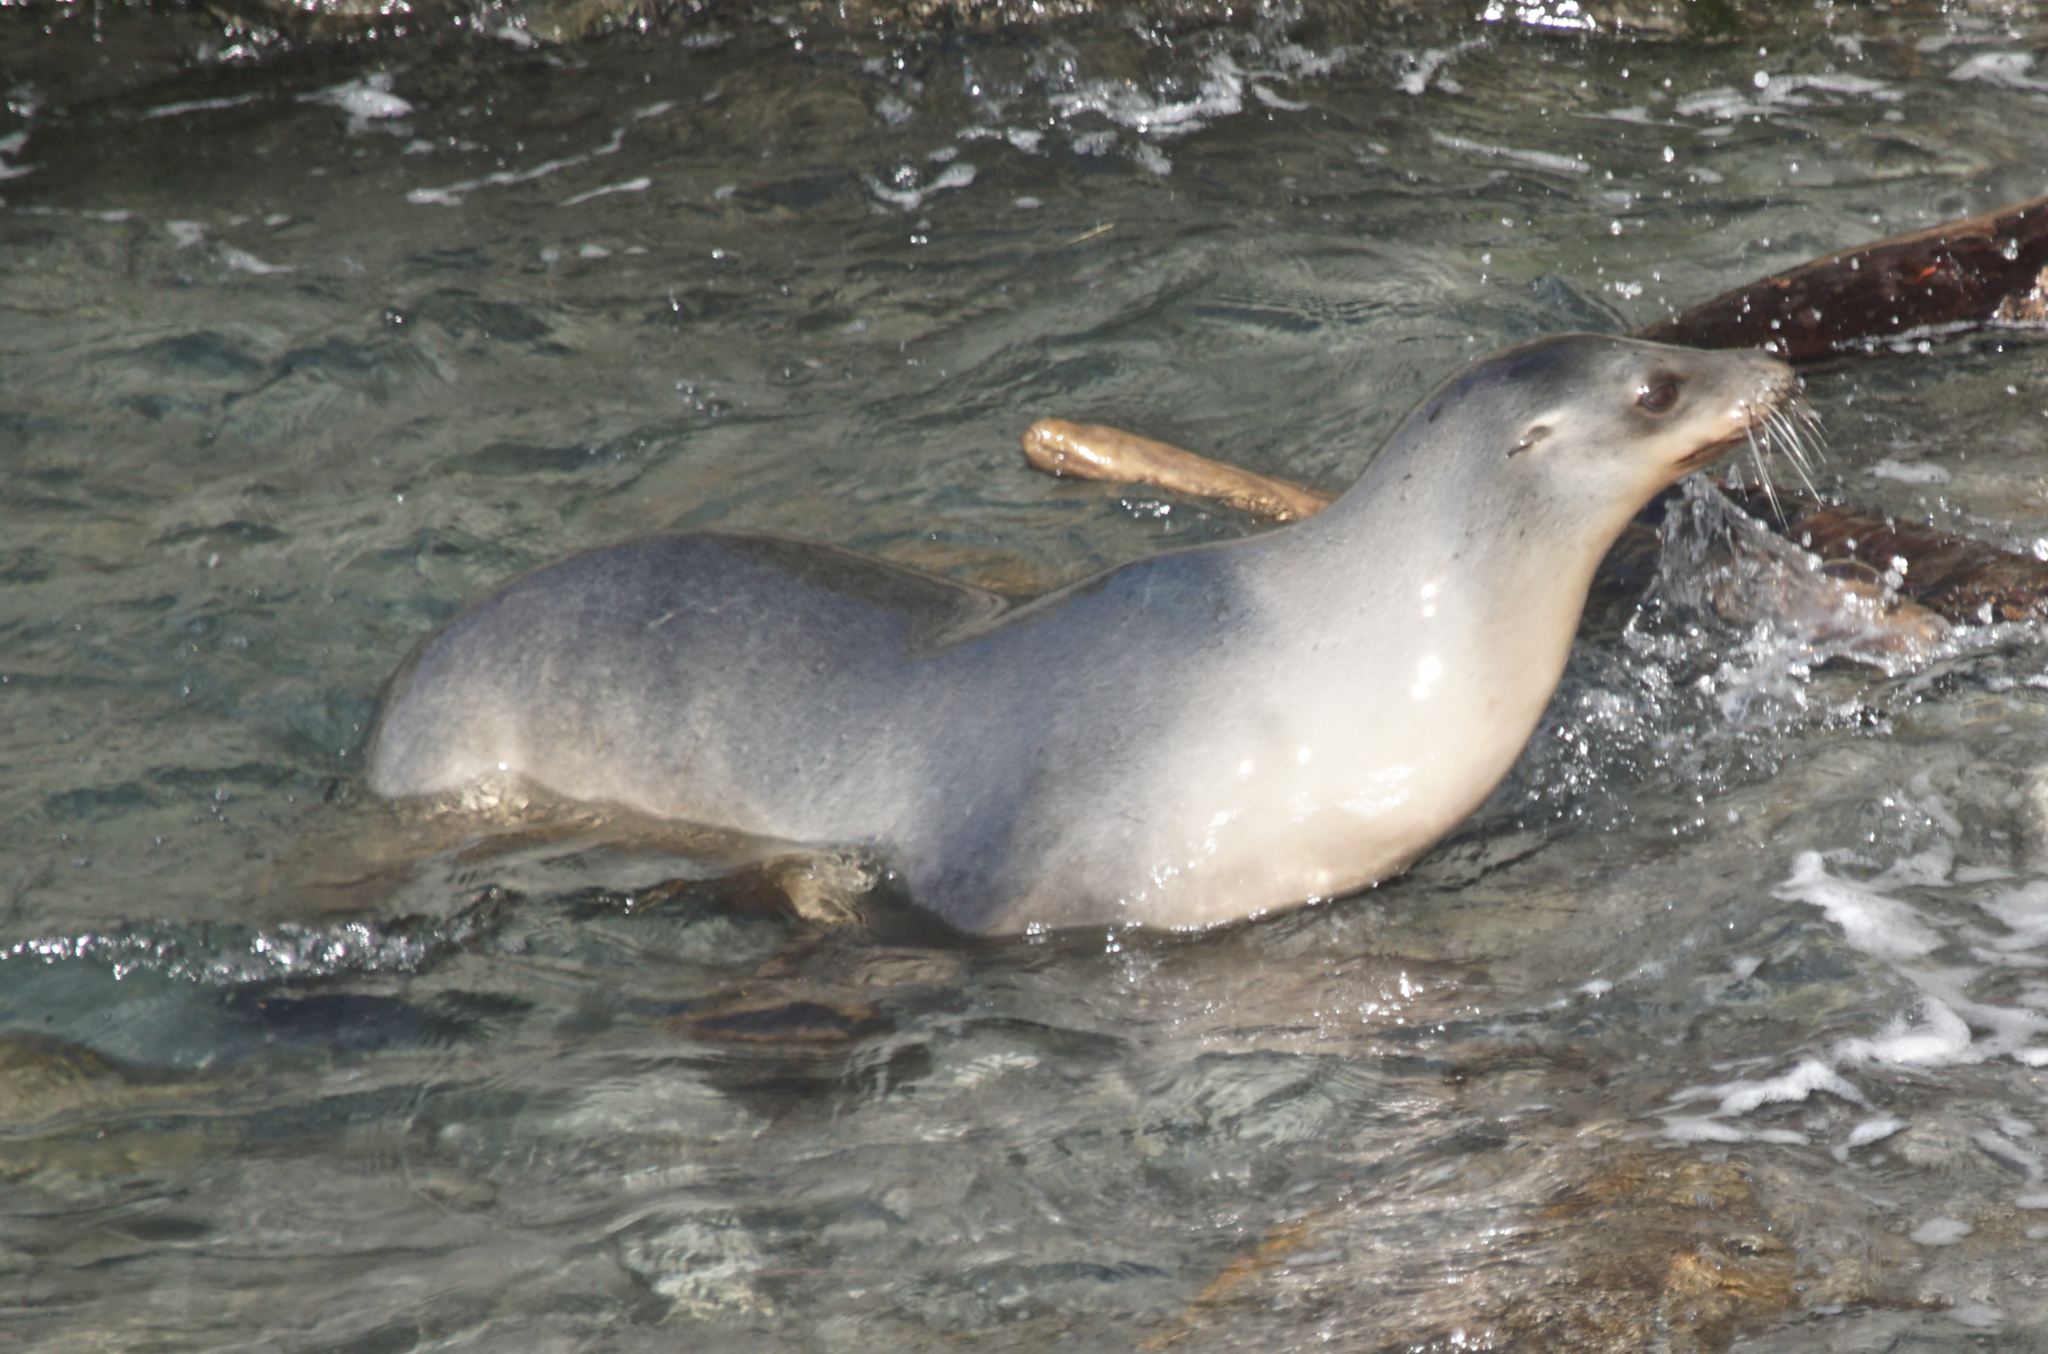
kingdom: Animalia
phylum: Chordata
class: Mammalia
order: Carnivora
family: Otariidae
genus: Zalophus
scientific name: Zalophus californianus
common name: California sea lion
